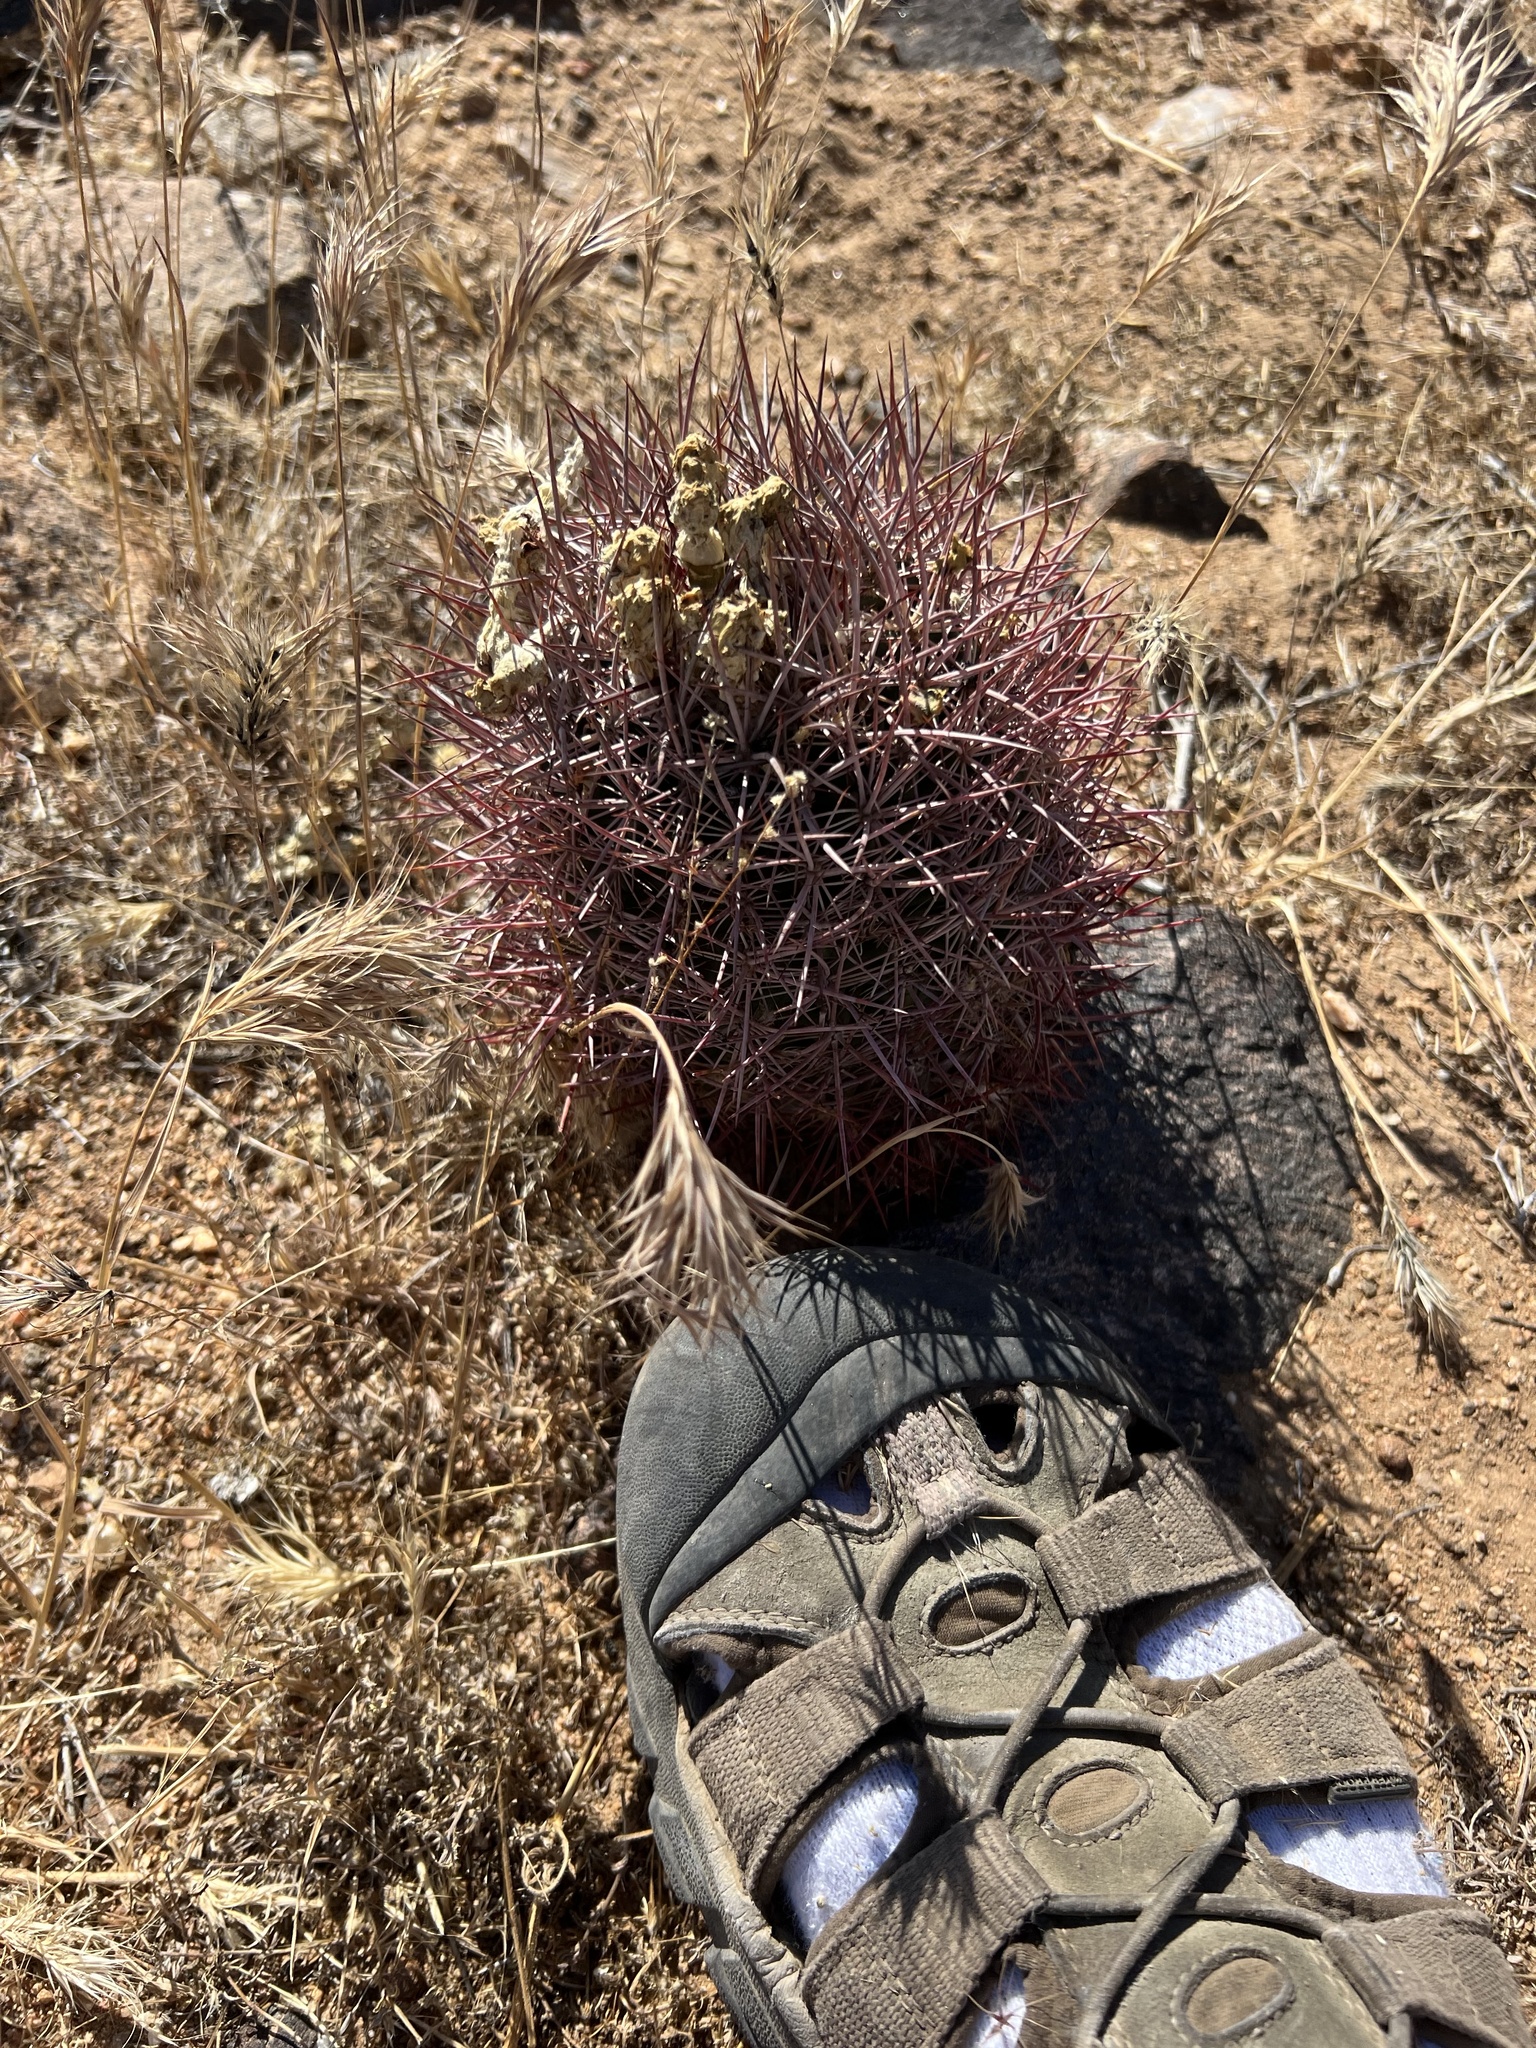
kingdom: Plantae
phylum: Tracheophyta
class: Magnoliopsida
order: Caryophyllales
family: Cactaceae
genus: Sclerocactus
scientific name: Sclerocactus johnsonii
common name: Eight-spine fishhook cactus
